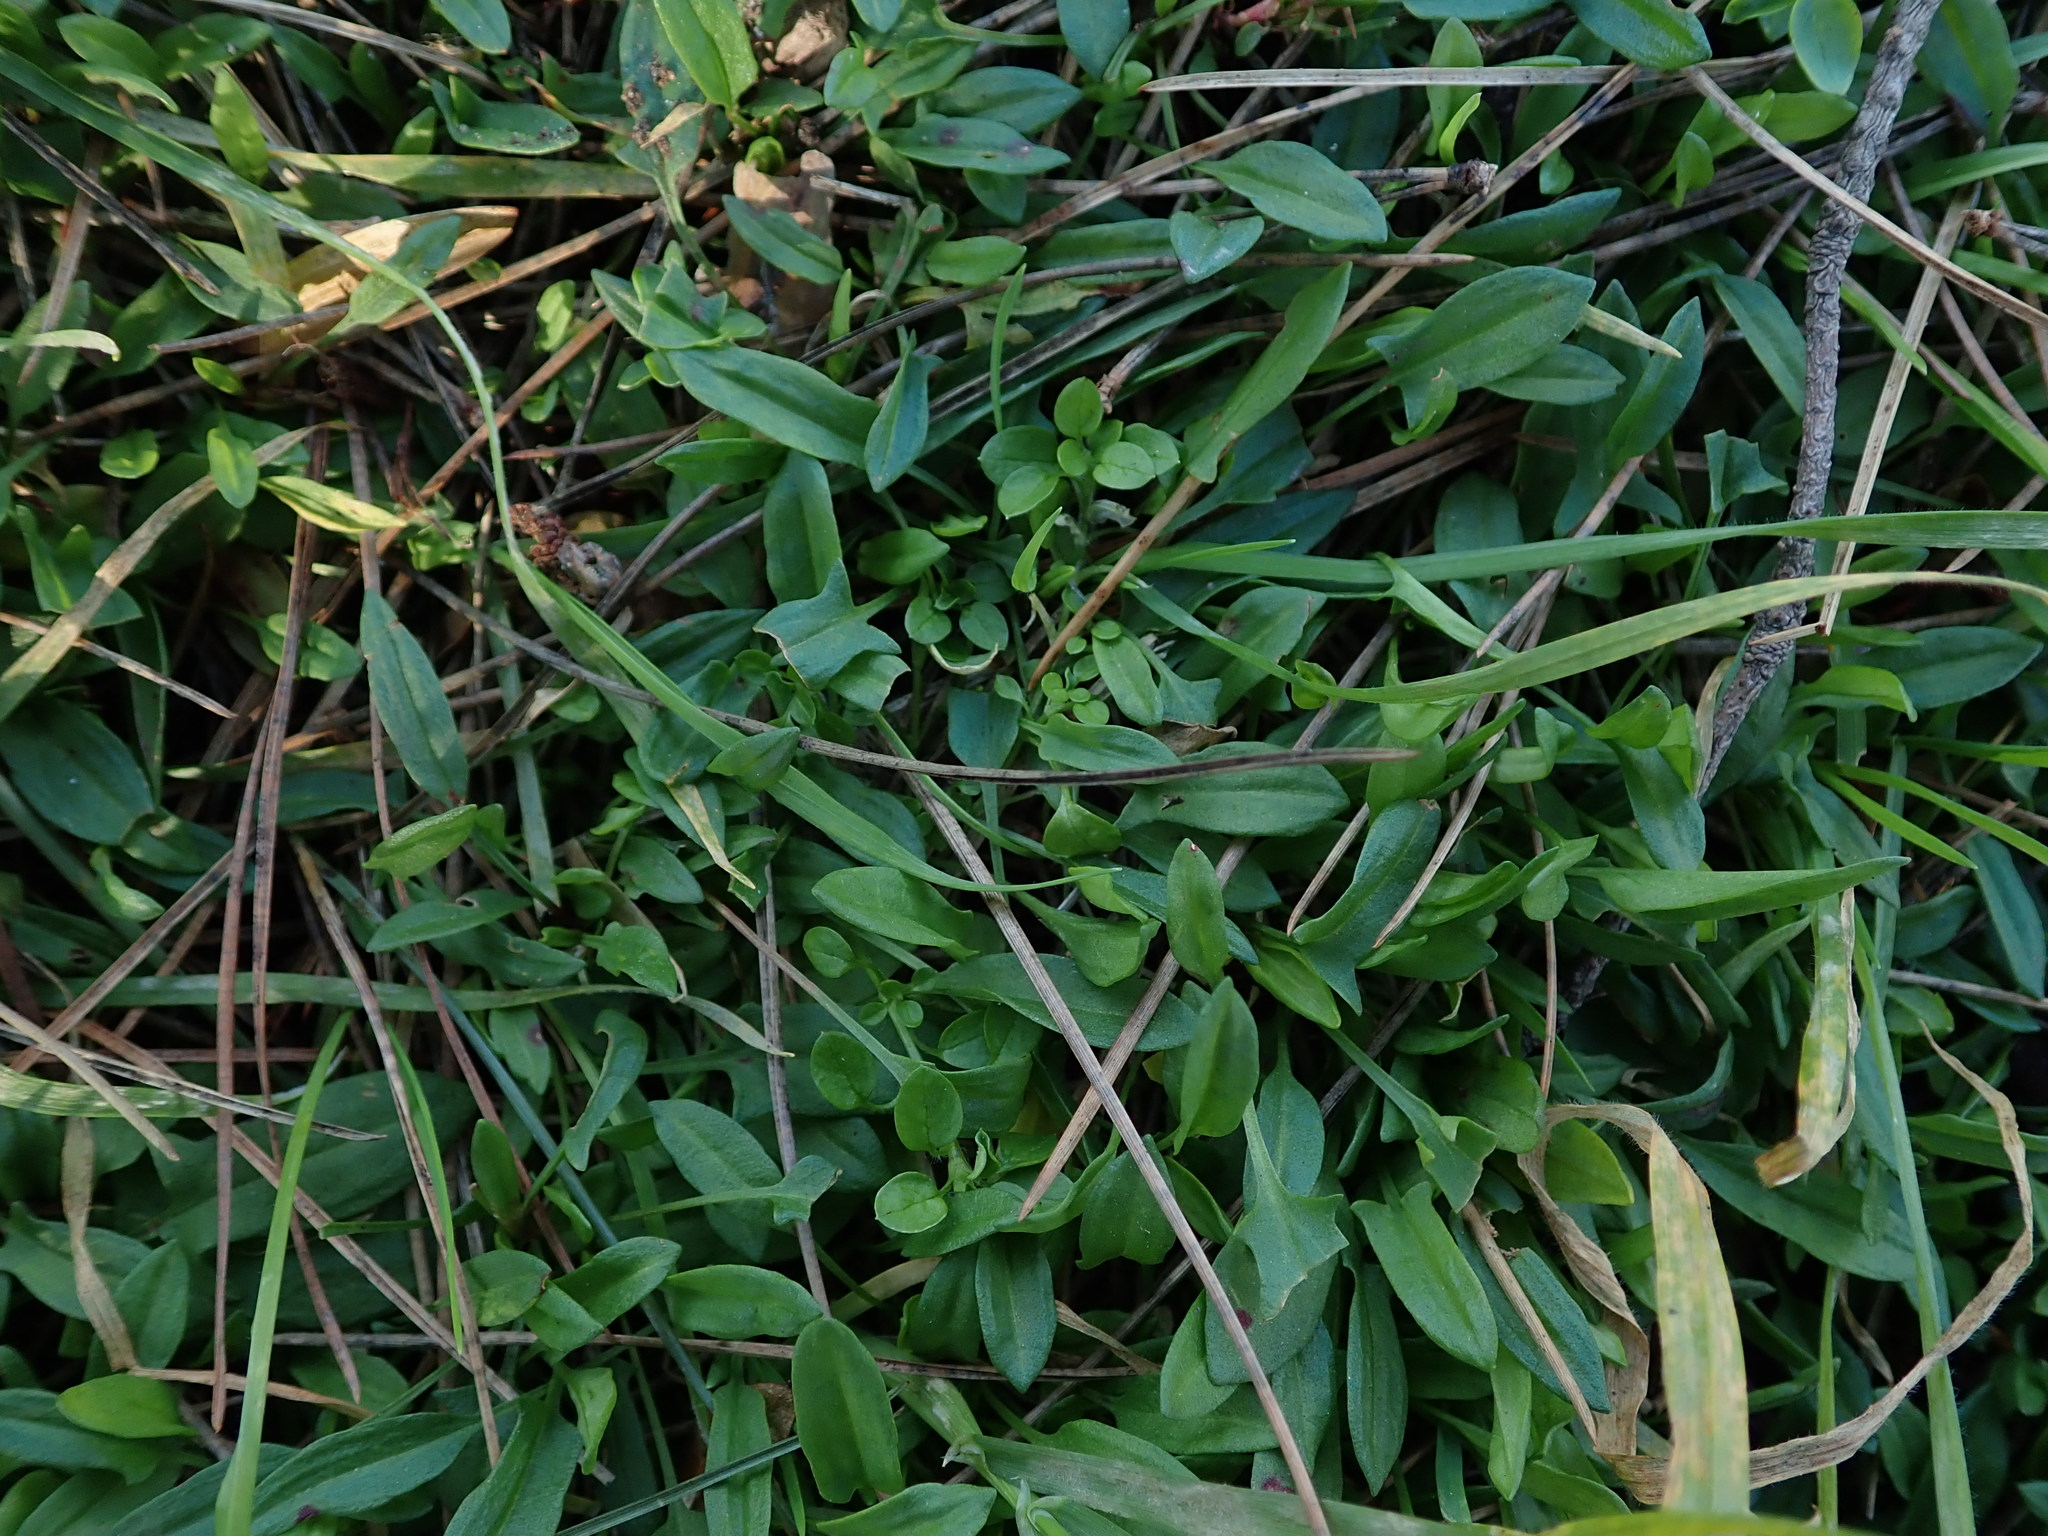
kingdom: Plantae
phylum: Tracheophyta
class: Magnoliopsida
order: Caryophyllales
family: Polygonaceae
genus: Rumex
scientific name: Rumex acetosella
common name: Common sheep sorrel
